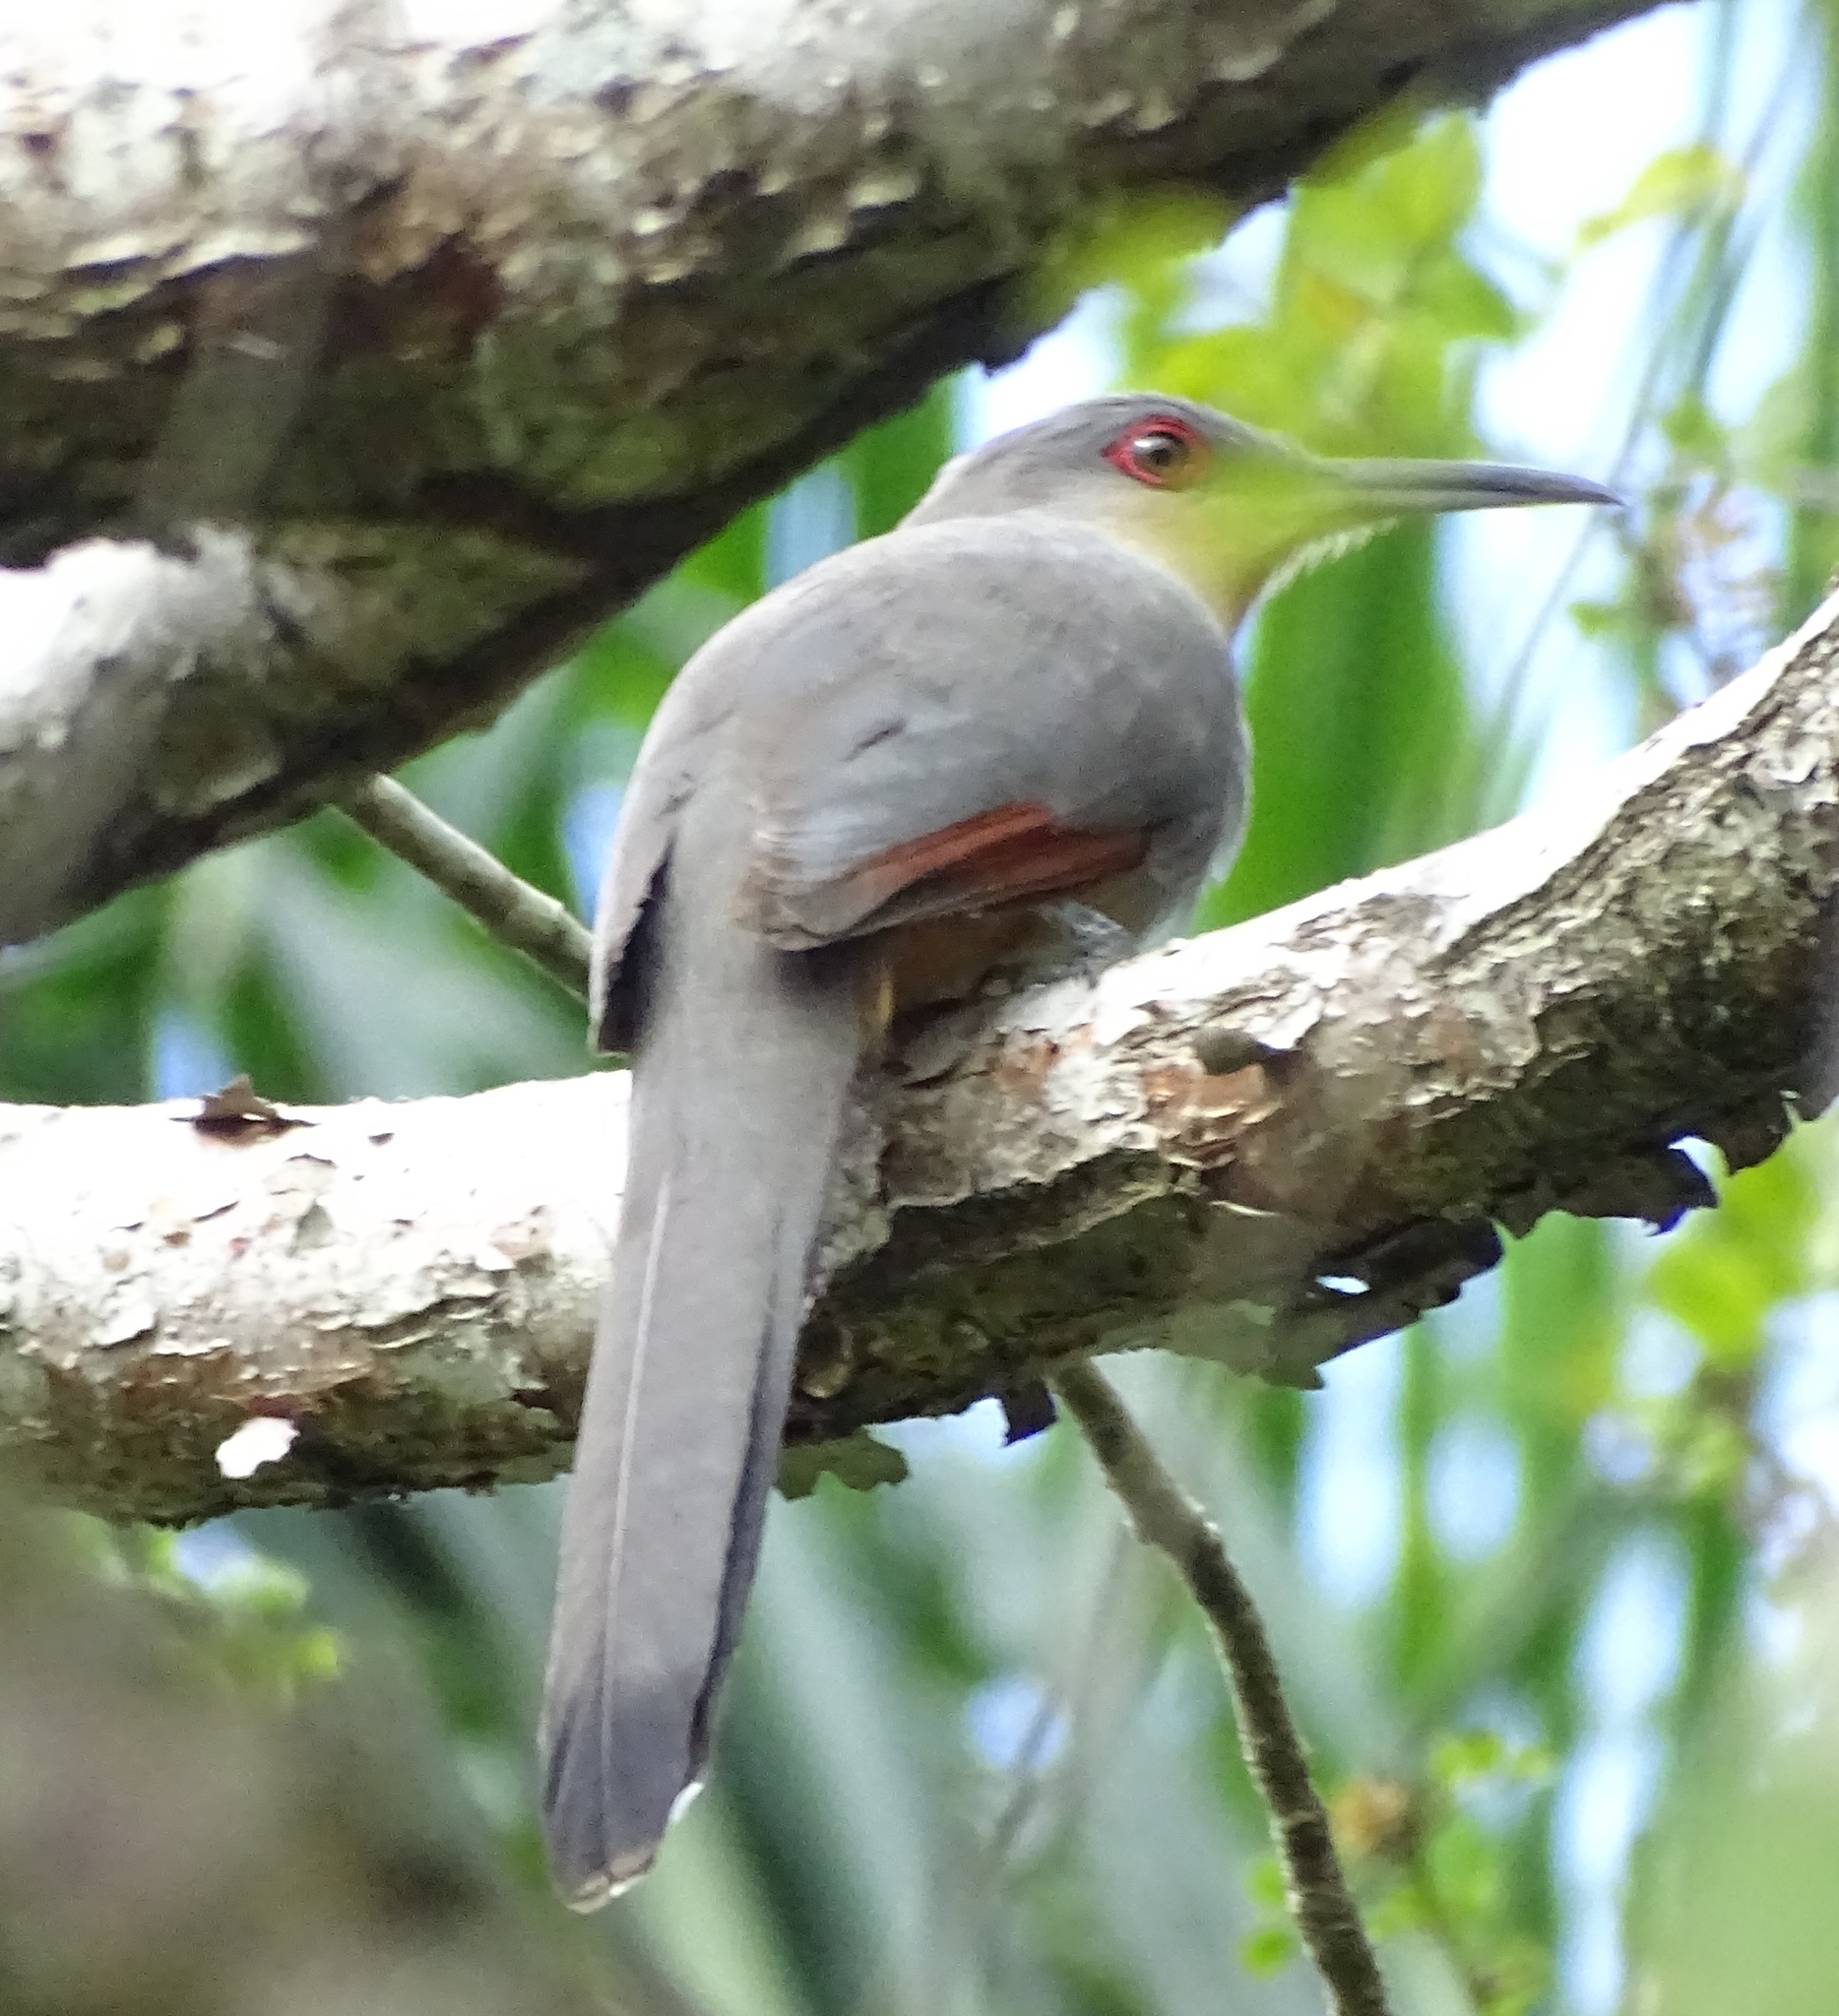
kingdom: Animalia
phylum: Chordata
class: Aves
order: Cuculiformes
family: Cuculidae
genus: Saurothera
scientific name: Saurothera longirostris
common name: Hispaniolan lizard-cuckoo
